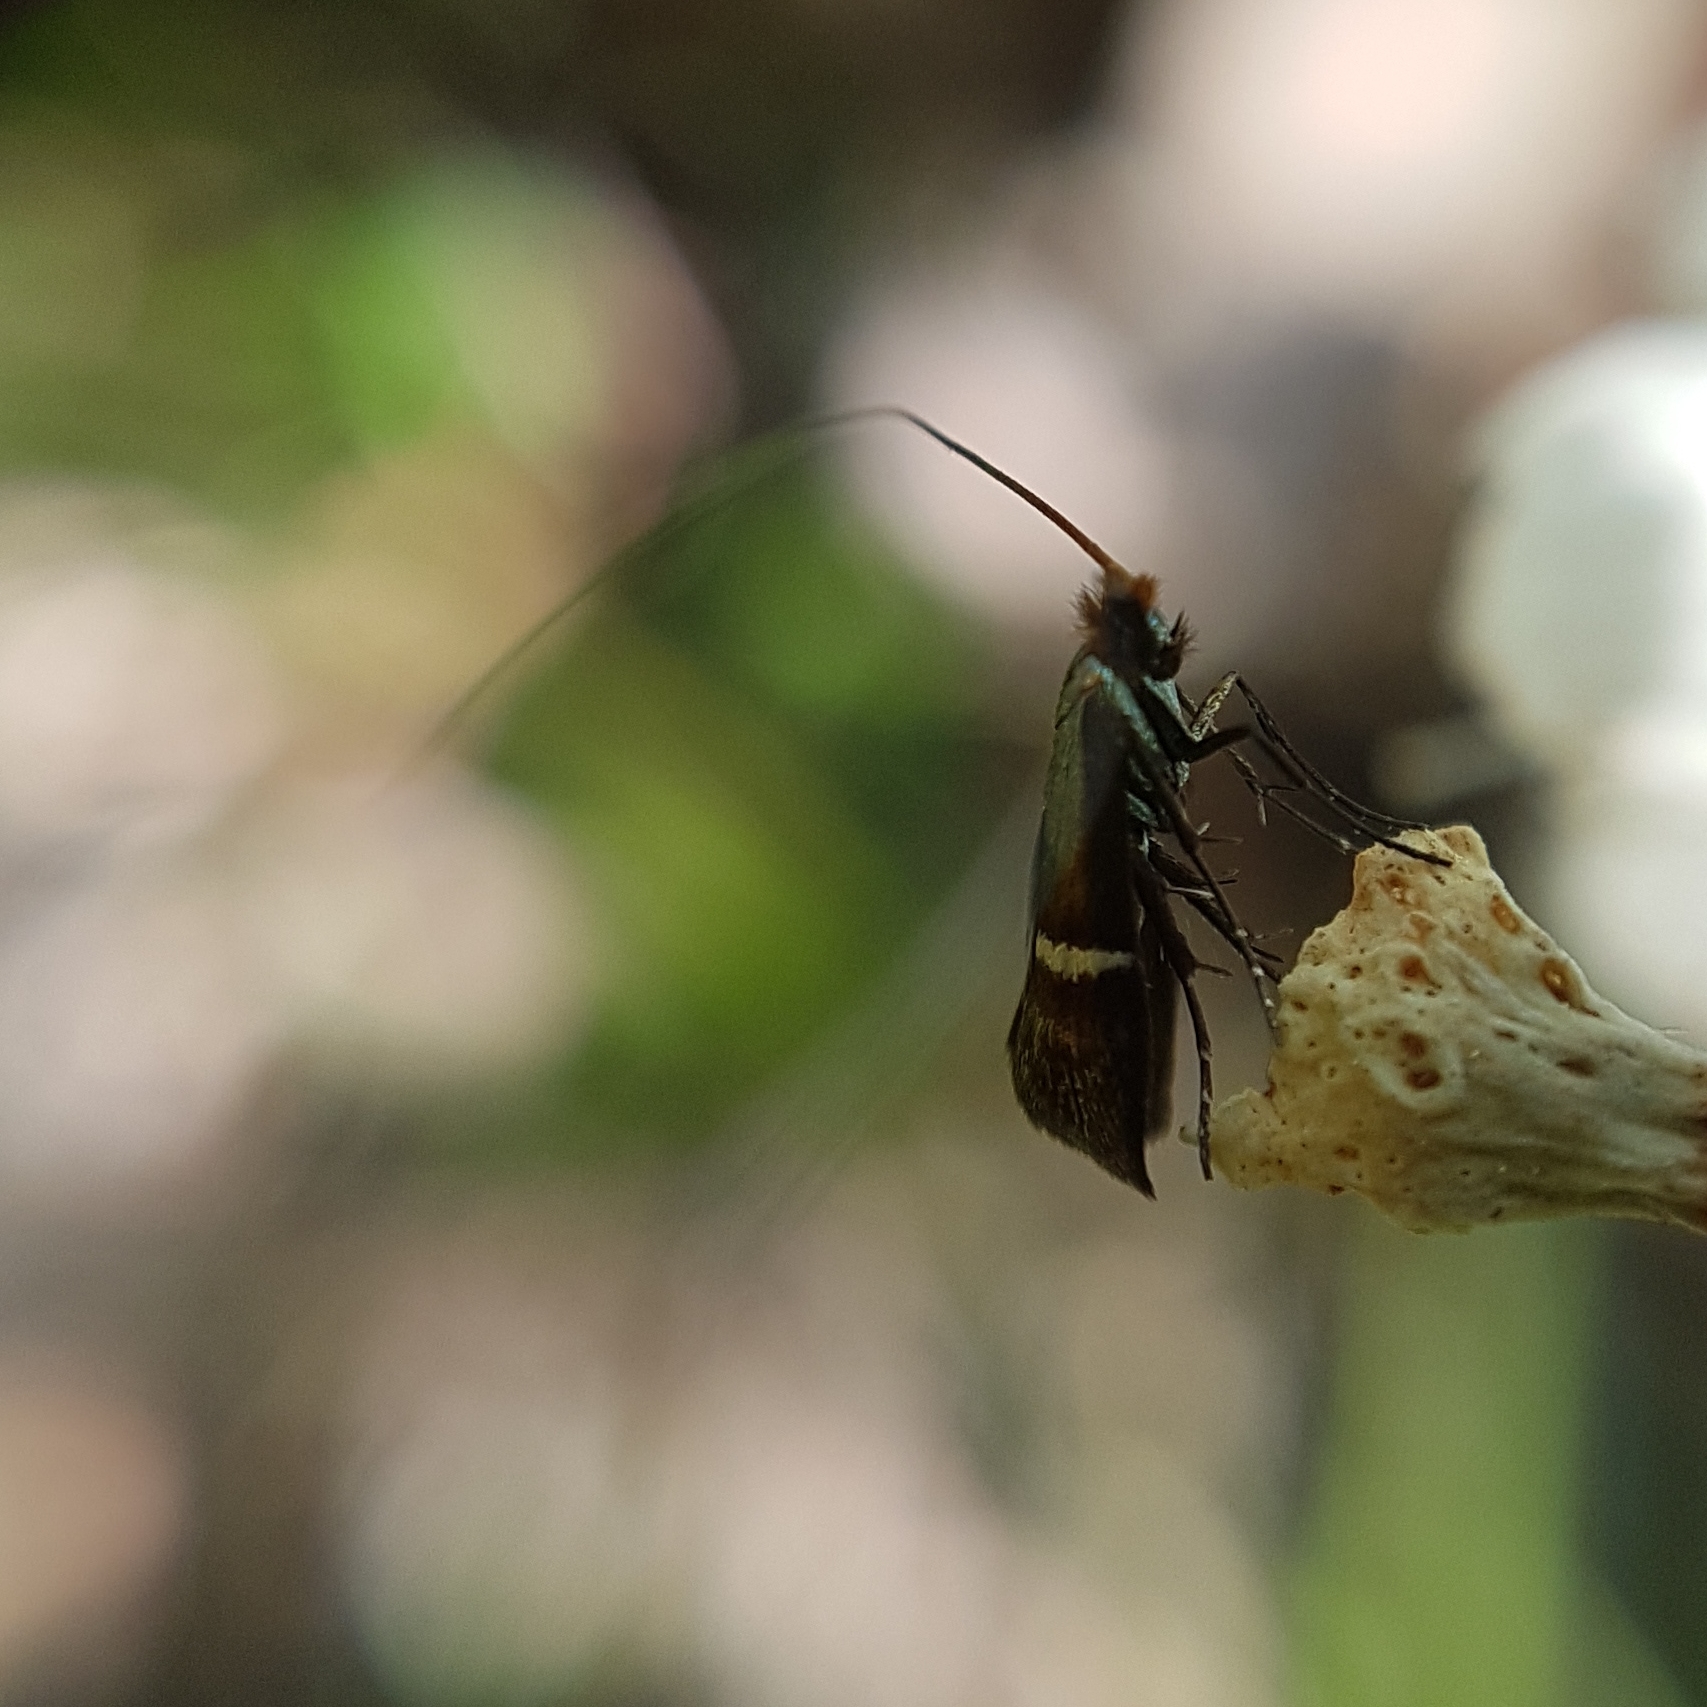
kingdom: Animalia
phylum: Arthropoda
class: Insecta
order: Lepidoptera
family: Adelidae
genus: Adela
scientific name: Adela australis
